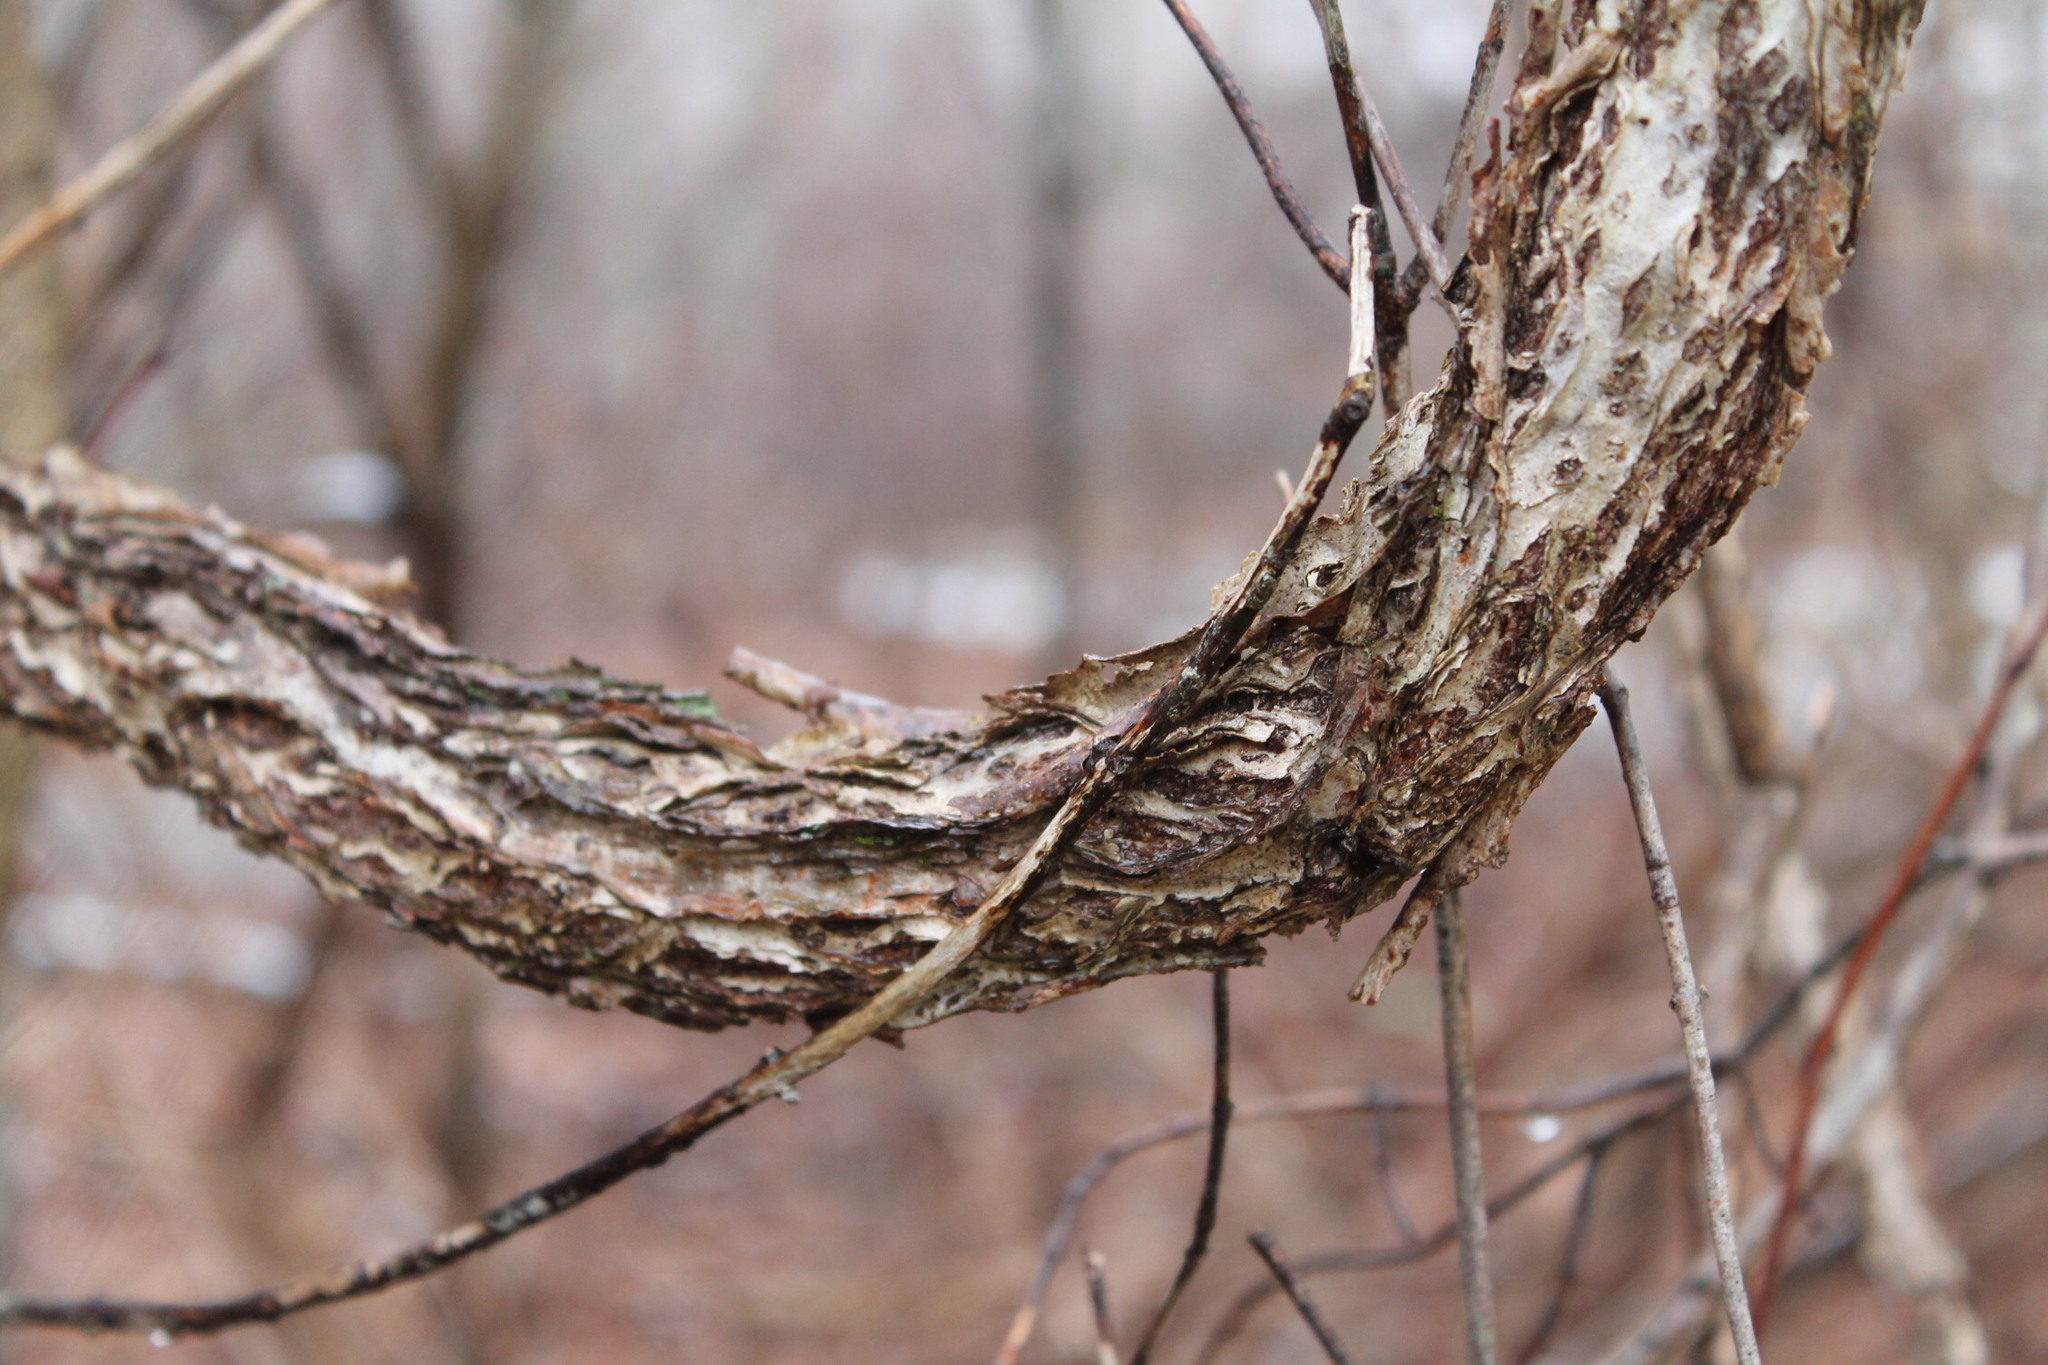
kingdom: Plantae
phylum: Tracheophyta
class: Magnoliopsida
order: Celastrales
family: Celastraceae
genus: Celastrus
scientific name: Celastrus orbiculatus
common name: Oriental bittersweet
